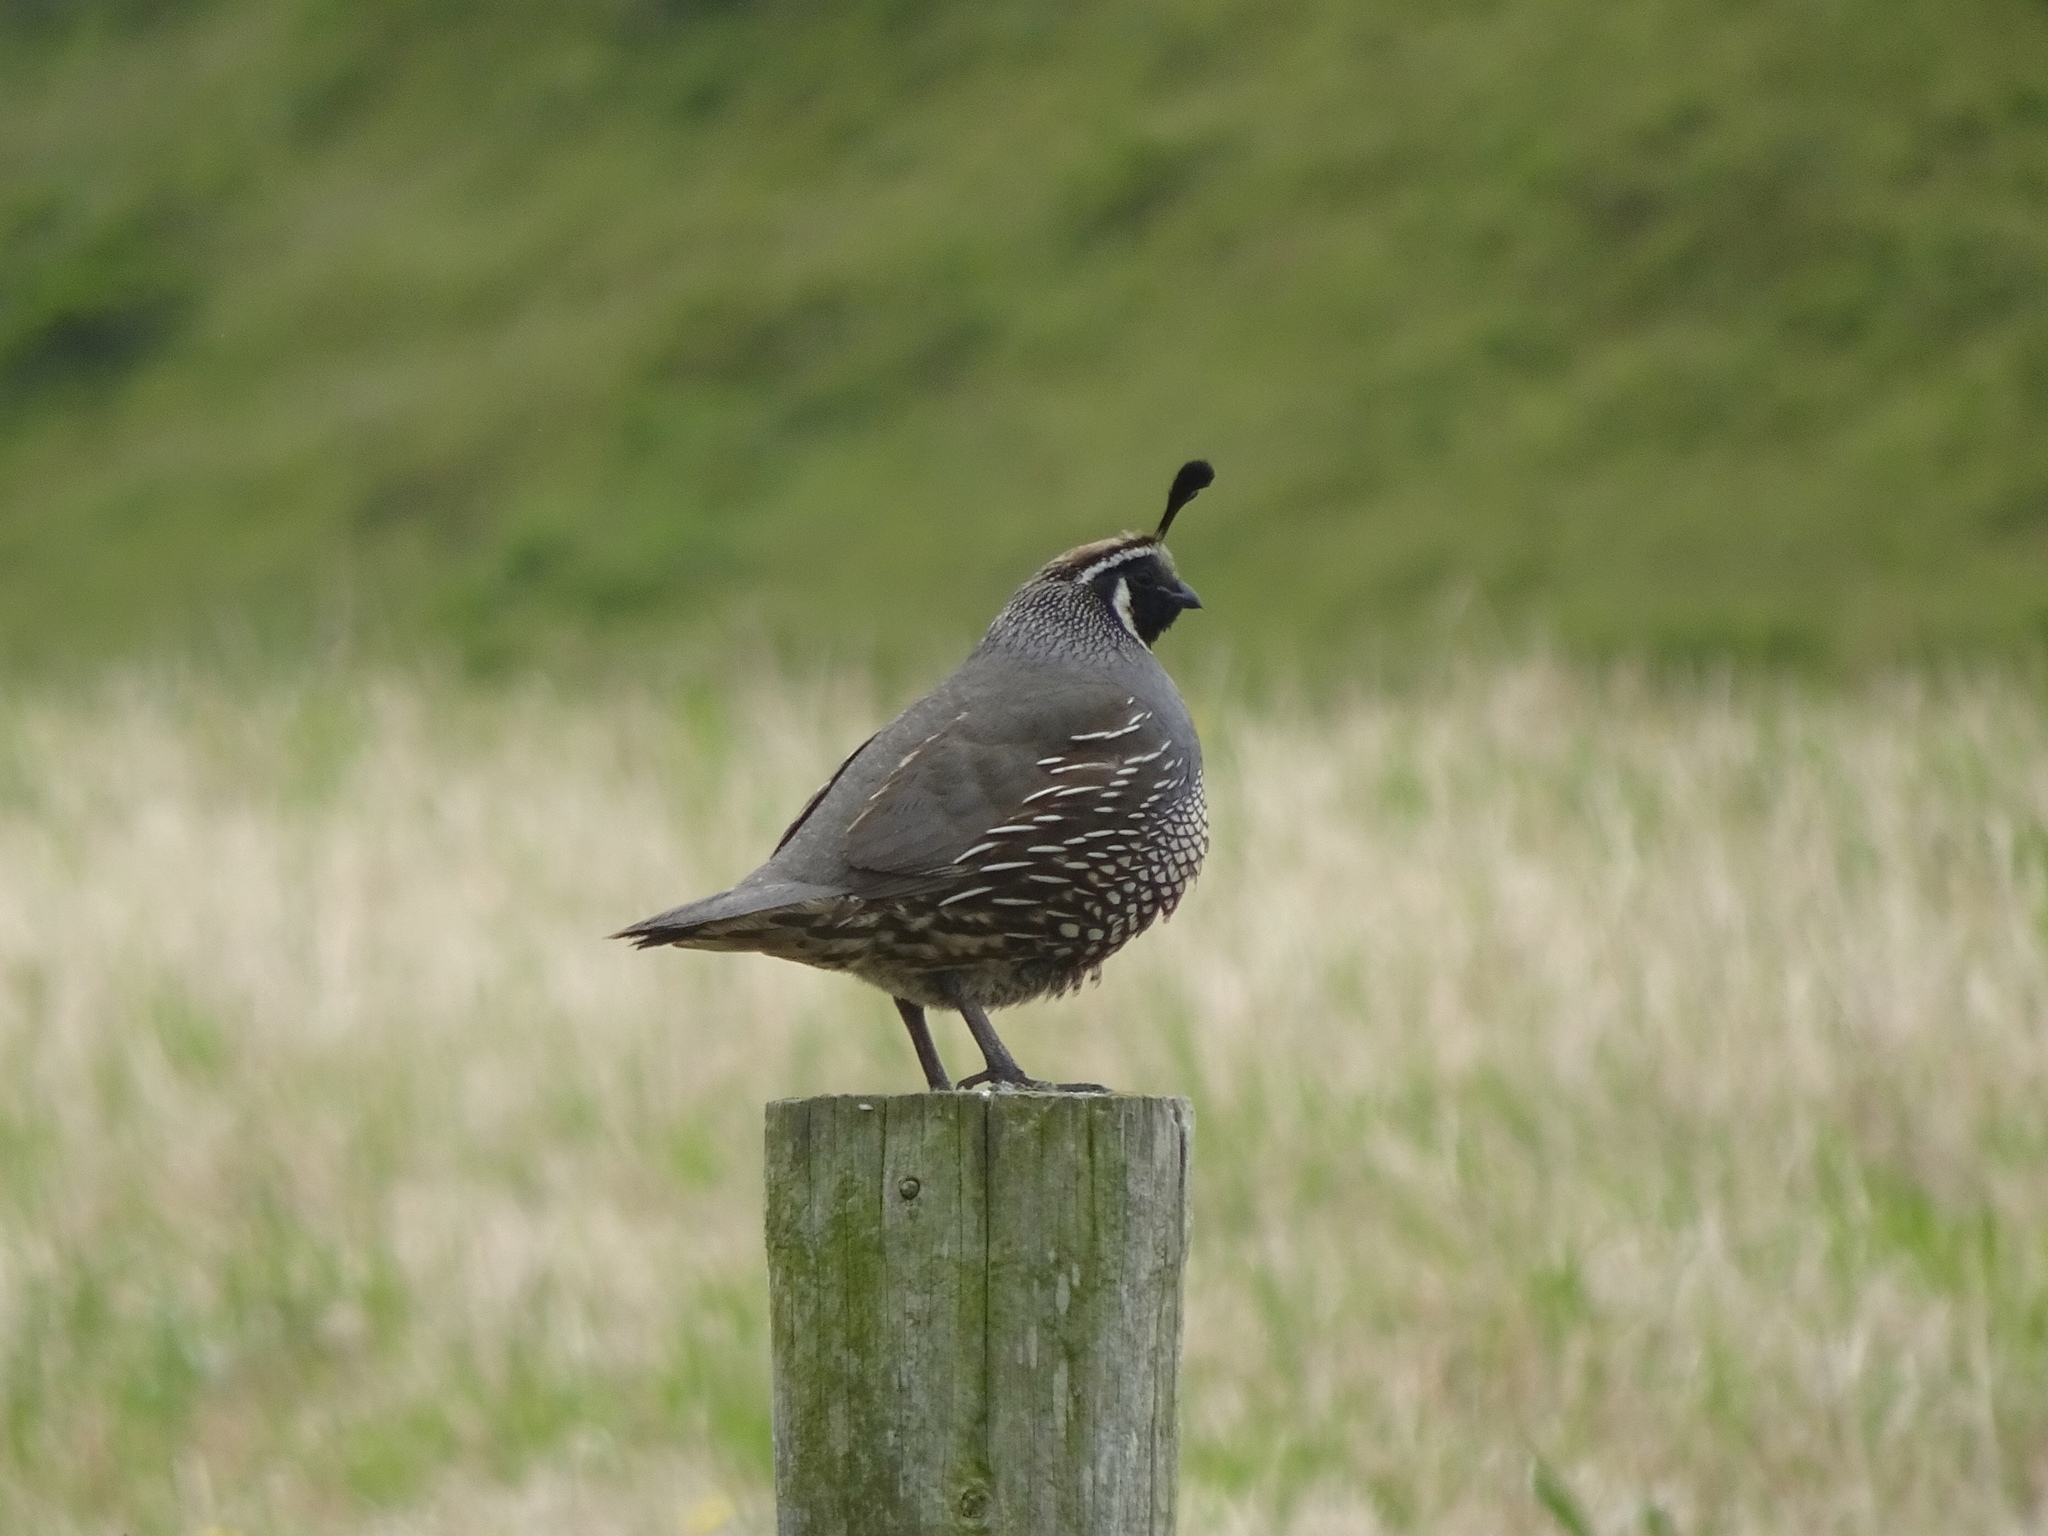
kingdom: Animalia
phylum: Chordata
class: Aves
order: Galliformes
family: Odontophoridae
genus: Callipepla
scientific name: Callipepla californica
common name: California quail
